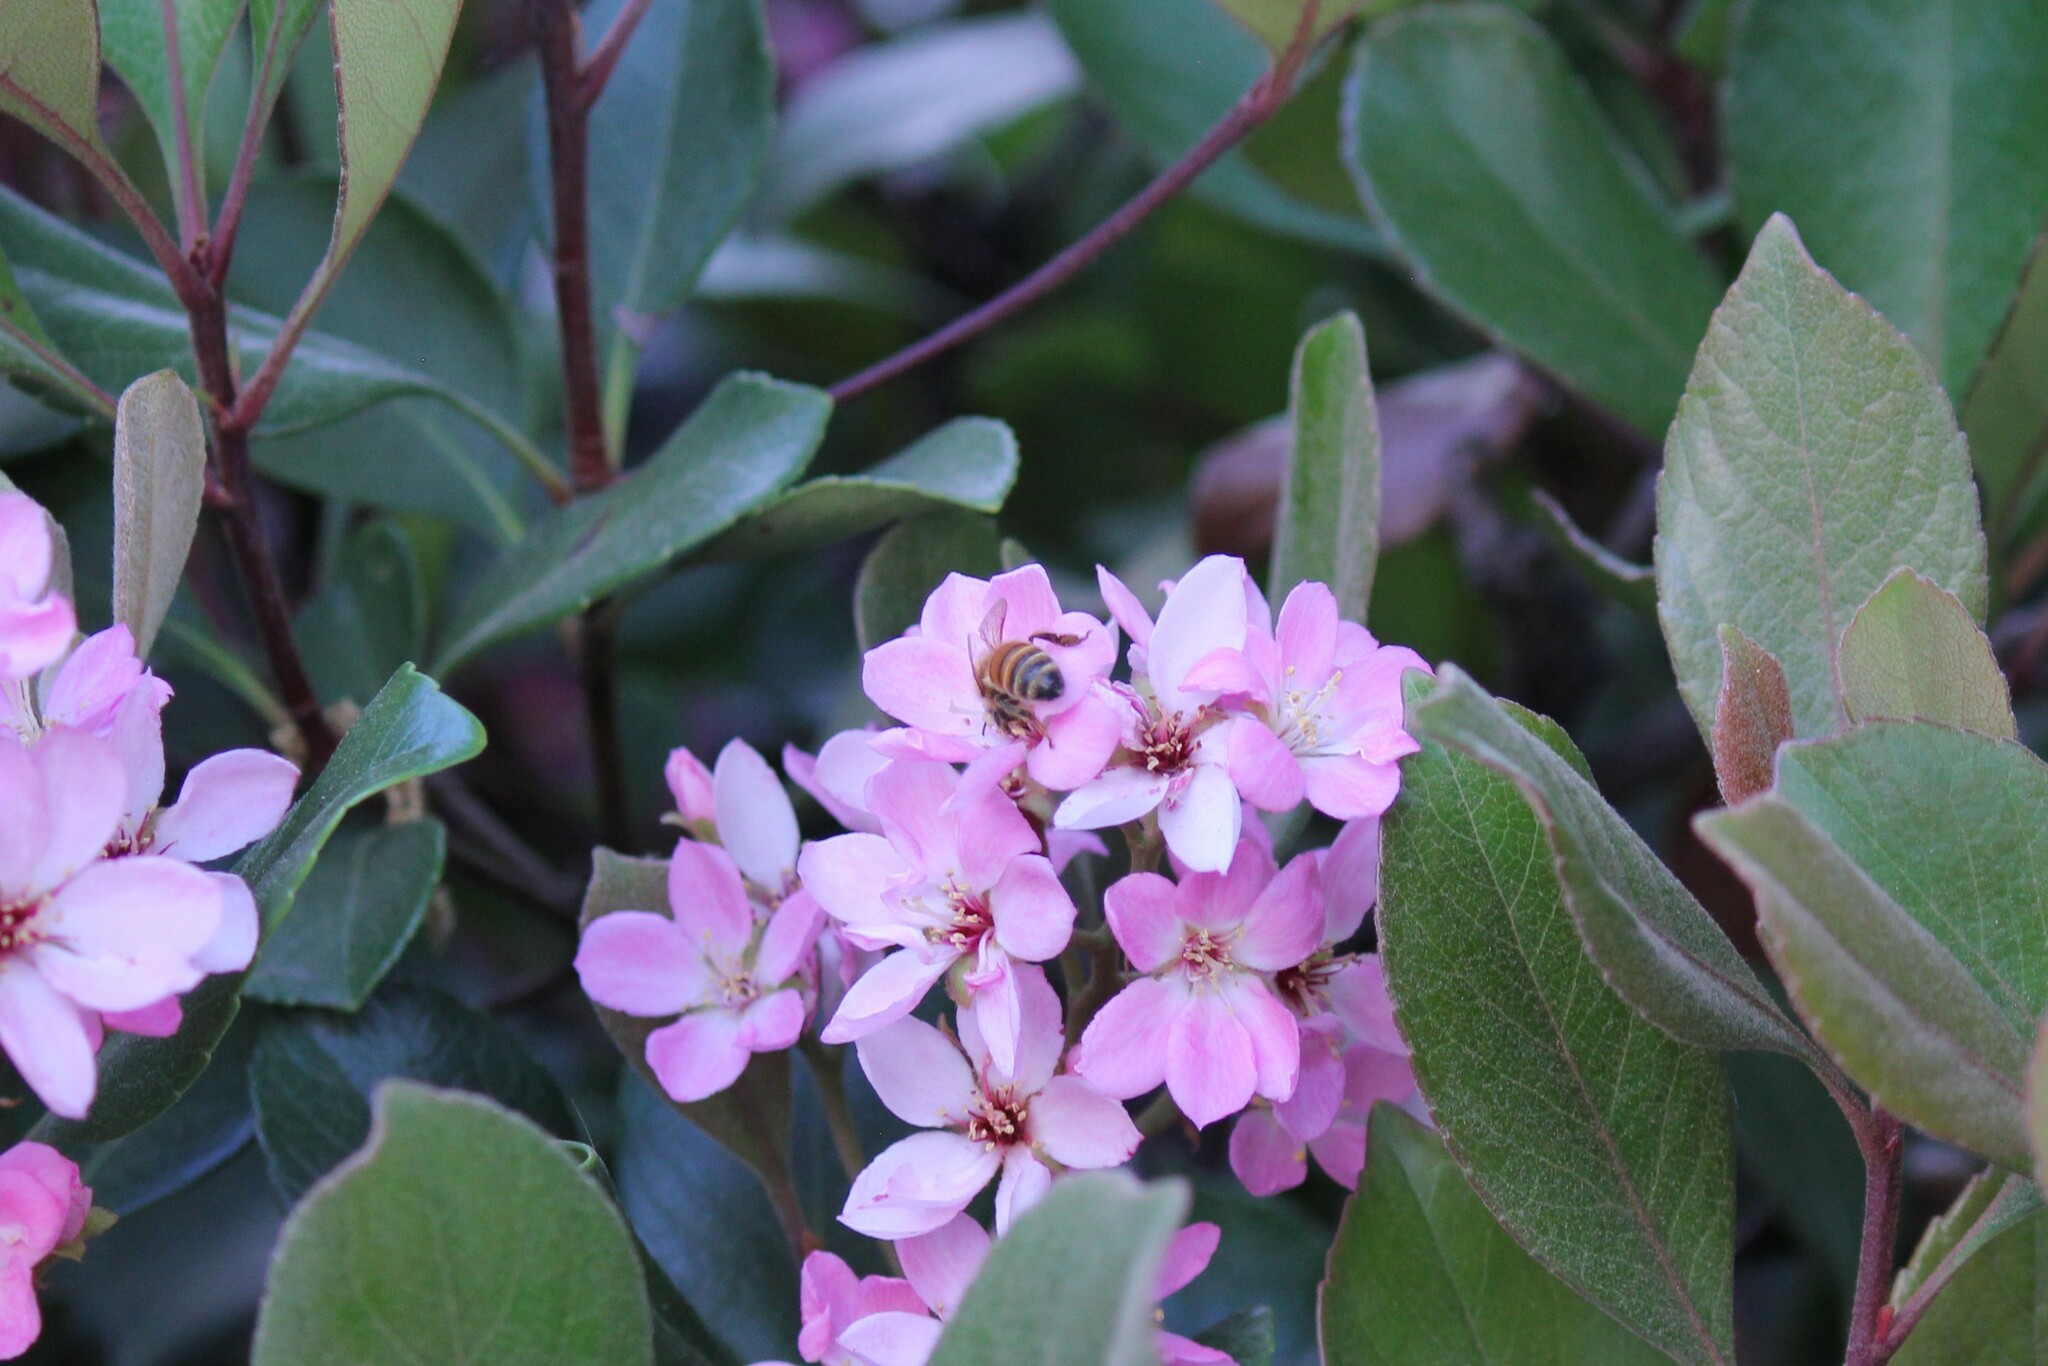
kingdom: Animalia
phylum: Arthropoda
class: Insecta
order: Hymenoptera
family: Apidae
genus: Apis
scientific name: Apis mellifera
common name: Honey bee
